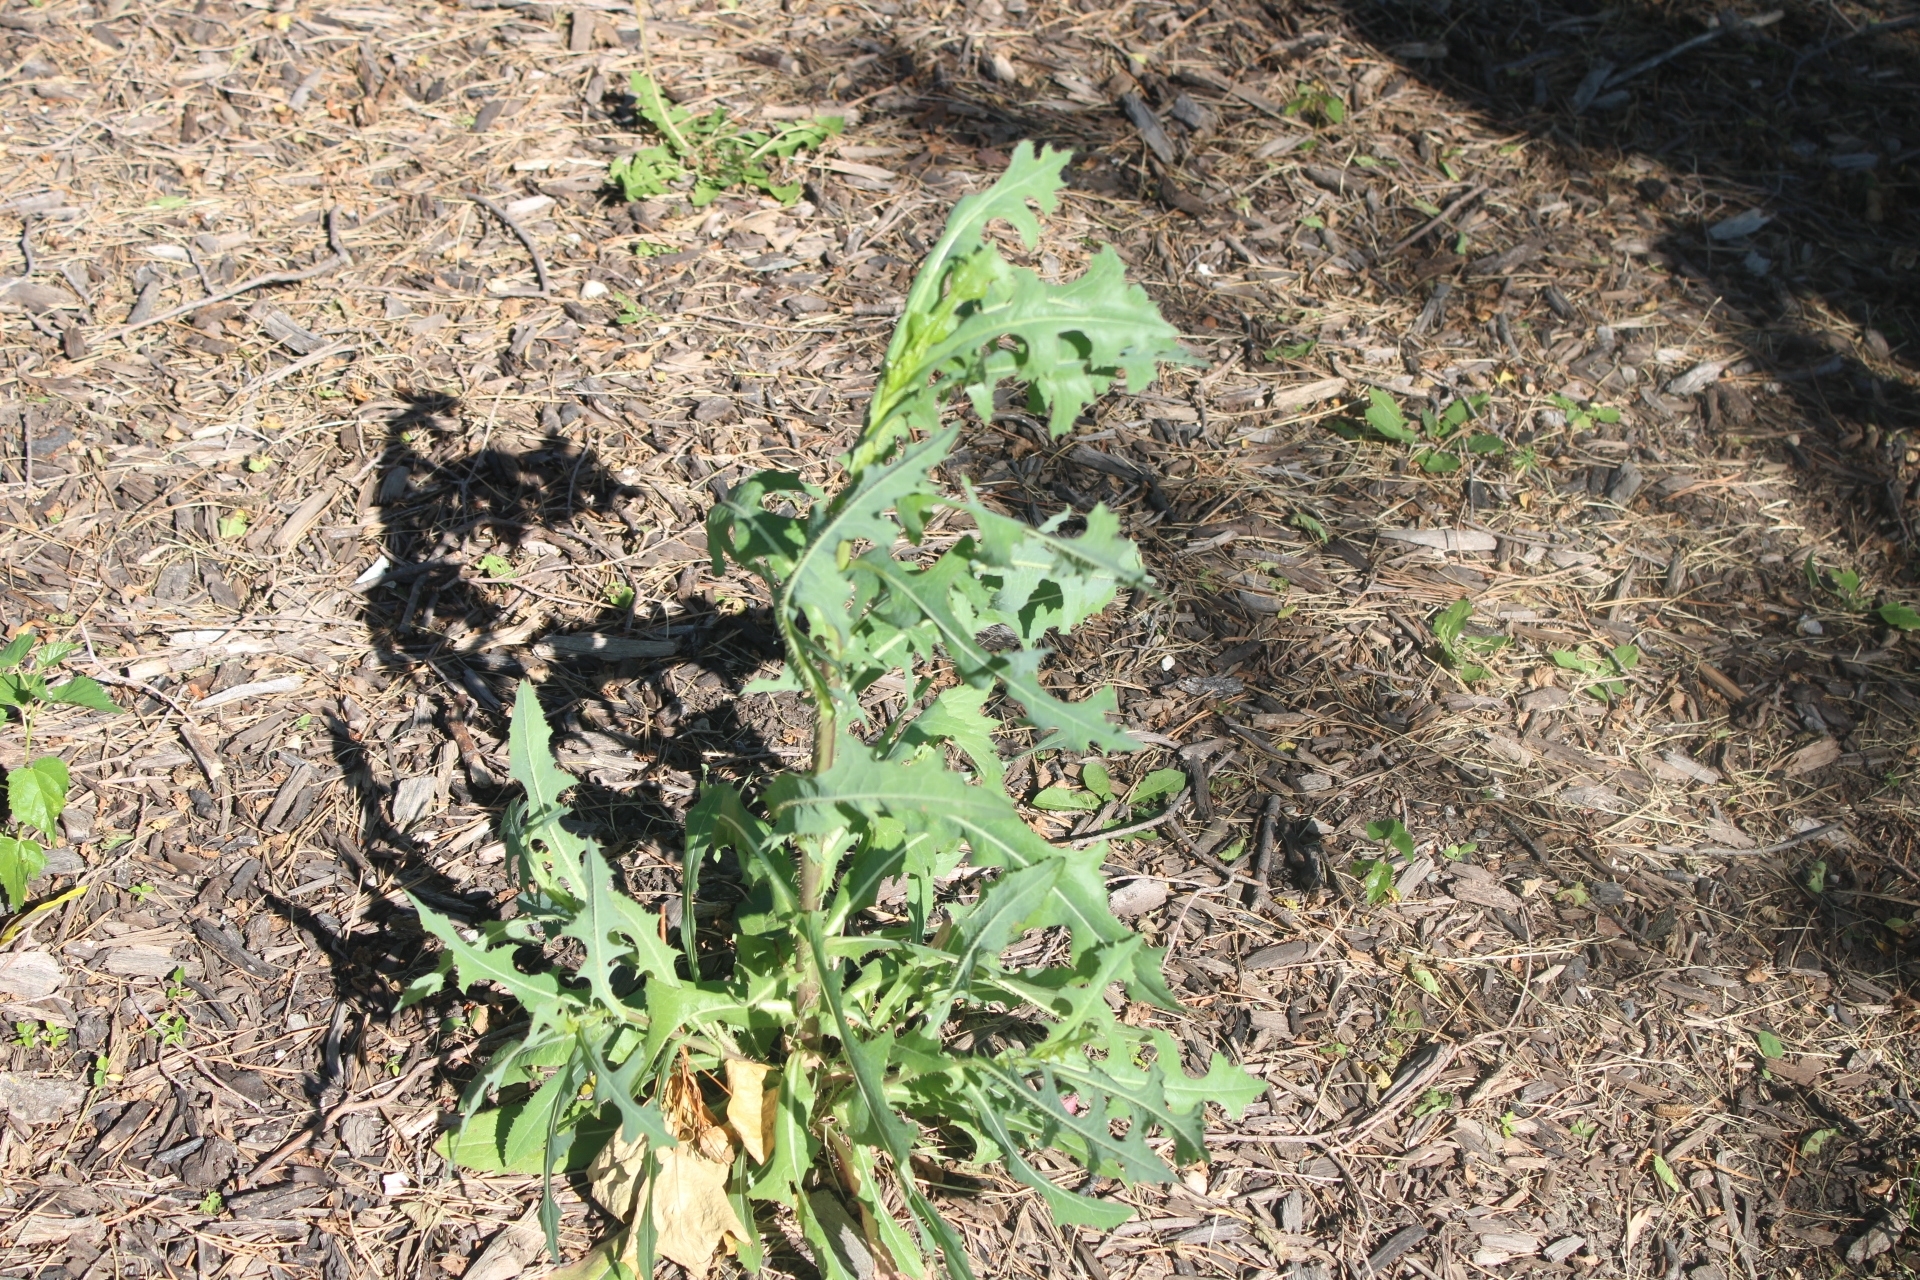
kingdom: Plantae
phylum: Tracheophyta
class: Magnoliopsida
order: Asterales
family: Asteraceae
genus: Lactuca
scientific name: Lactuca serriola
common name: Prickly lettuce
